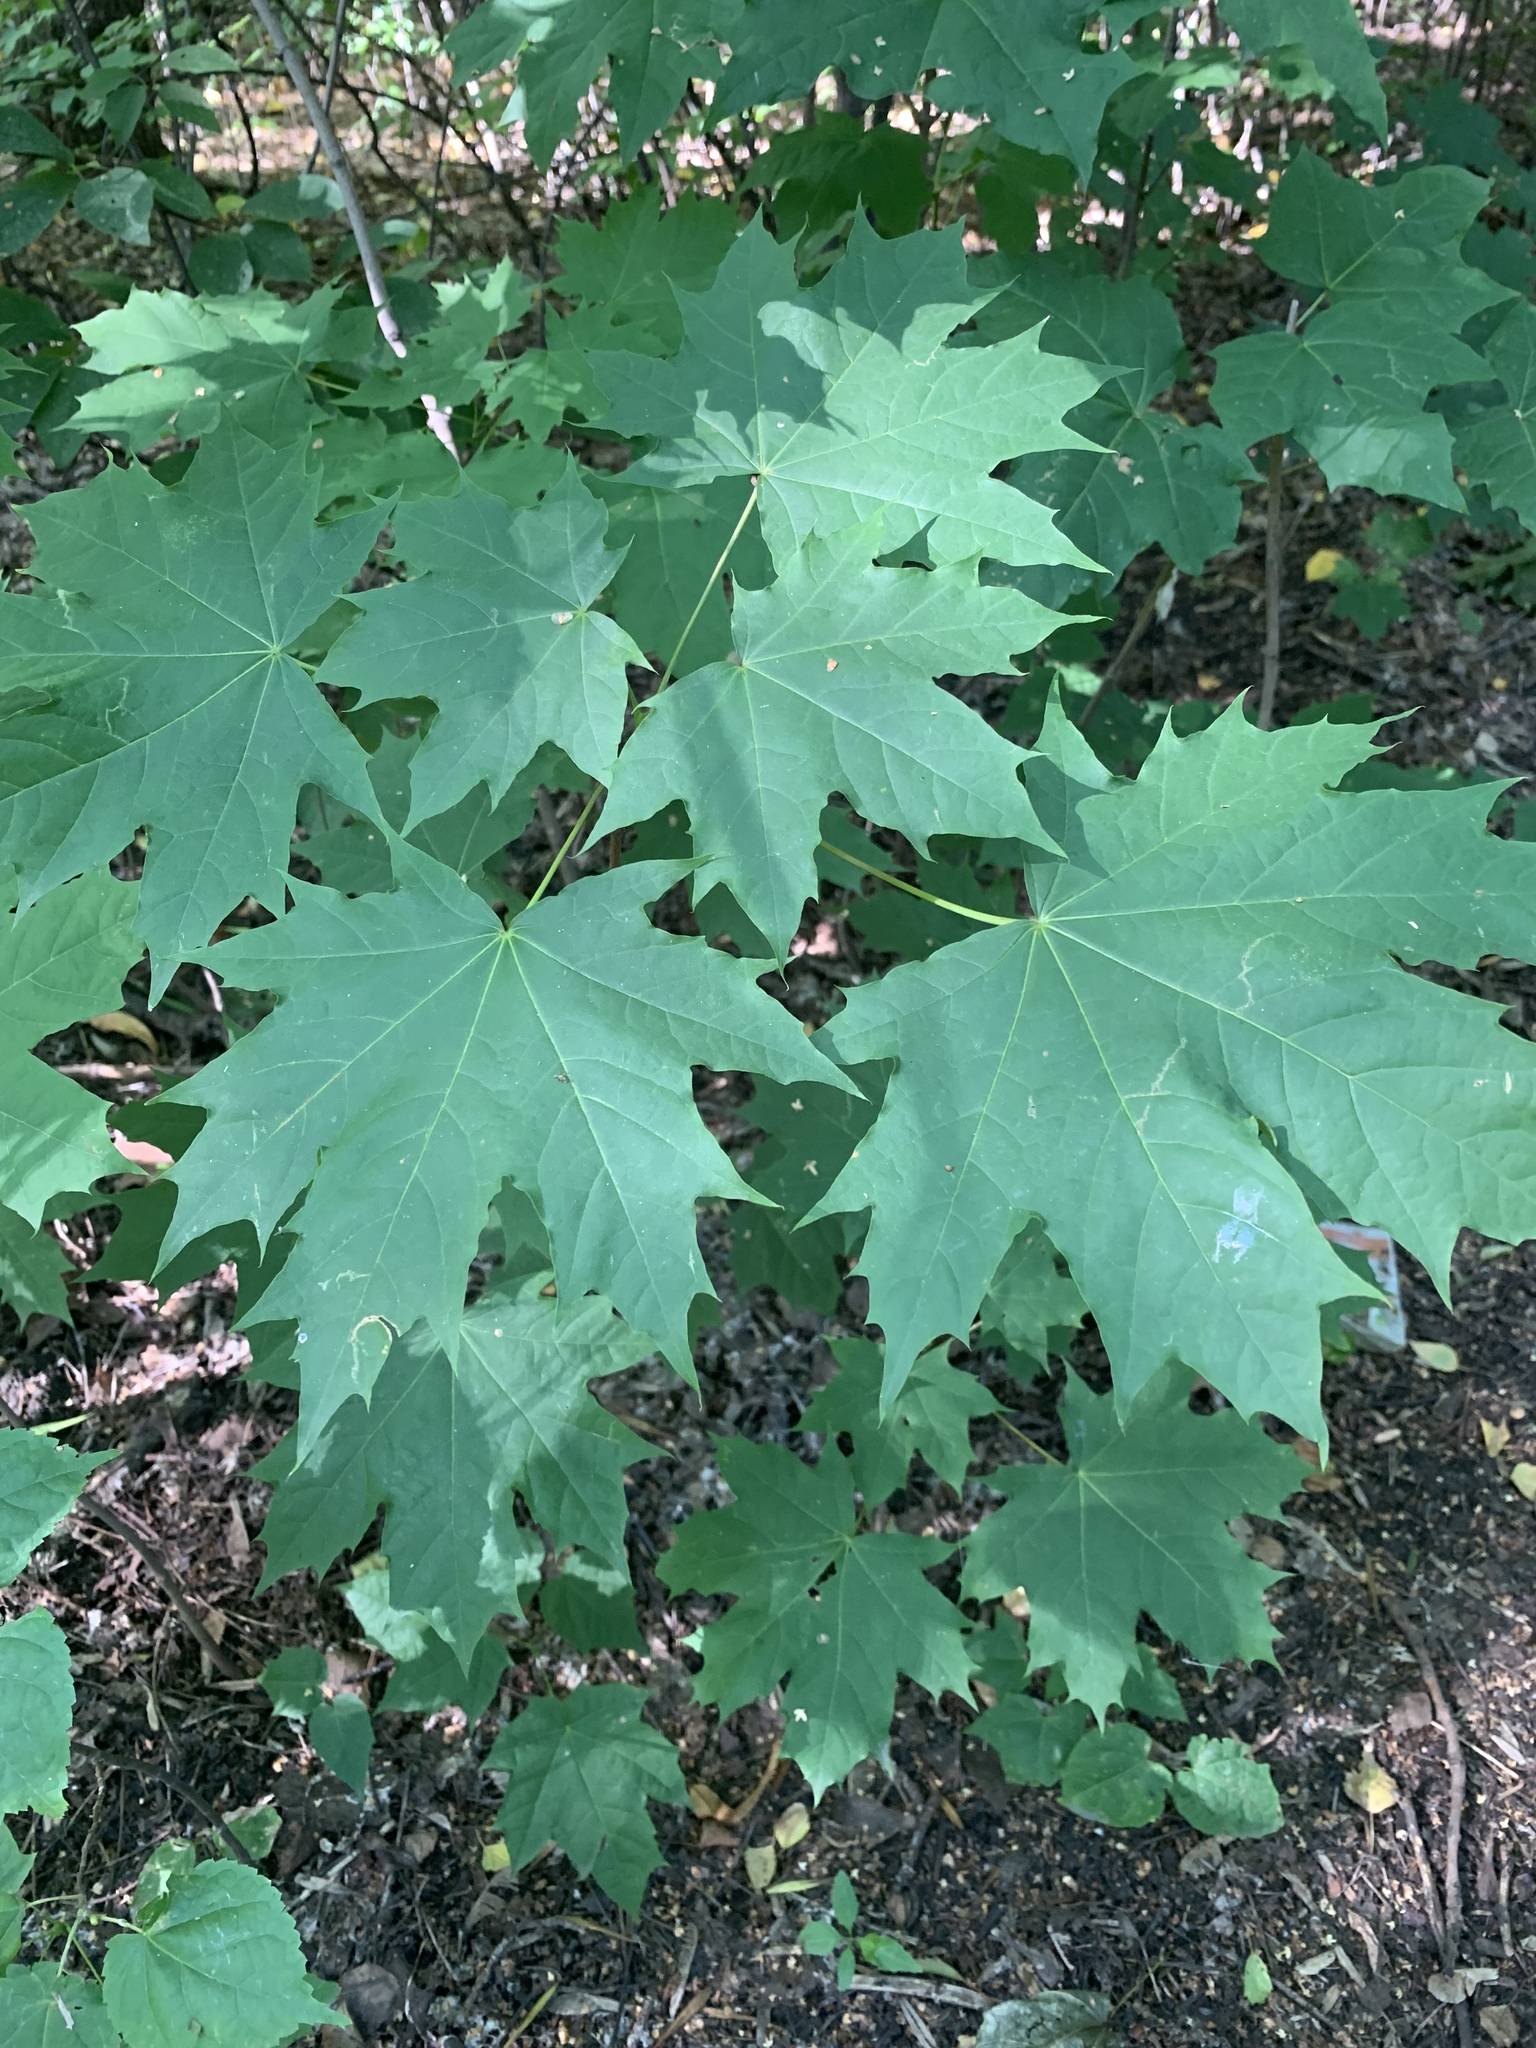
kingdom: Plantae
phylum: Tracheophyta
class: Magnoliopsida
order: Sapindales
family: Sapindaceae
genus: Acer
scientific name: Acer platanoides
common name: Norway maple
